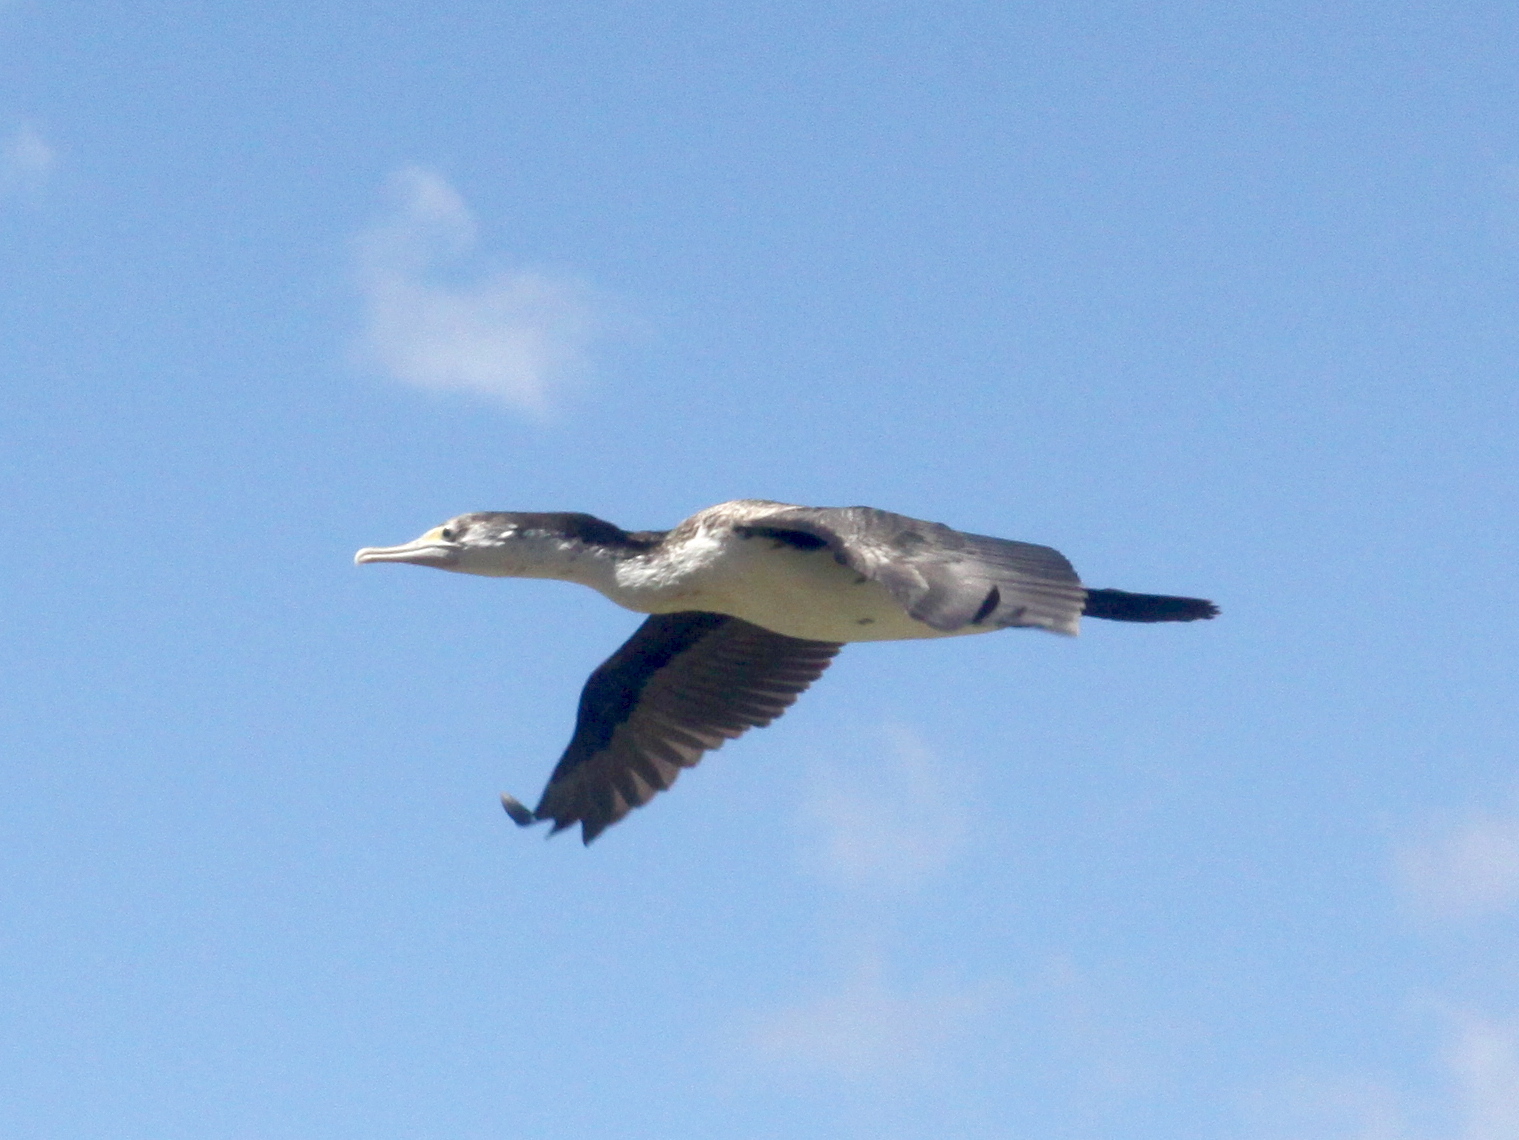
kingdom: Animalia
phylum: Chordata
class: Aves
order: Suliformes
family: Phalacrocoracidae
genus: Phalacrocorax
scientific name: Phalacrocorax varius
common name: Pied cormorant
